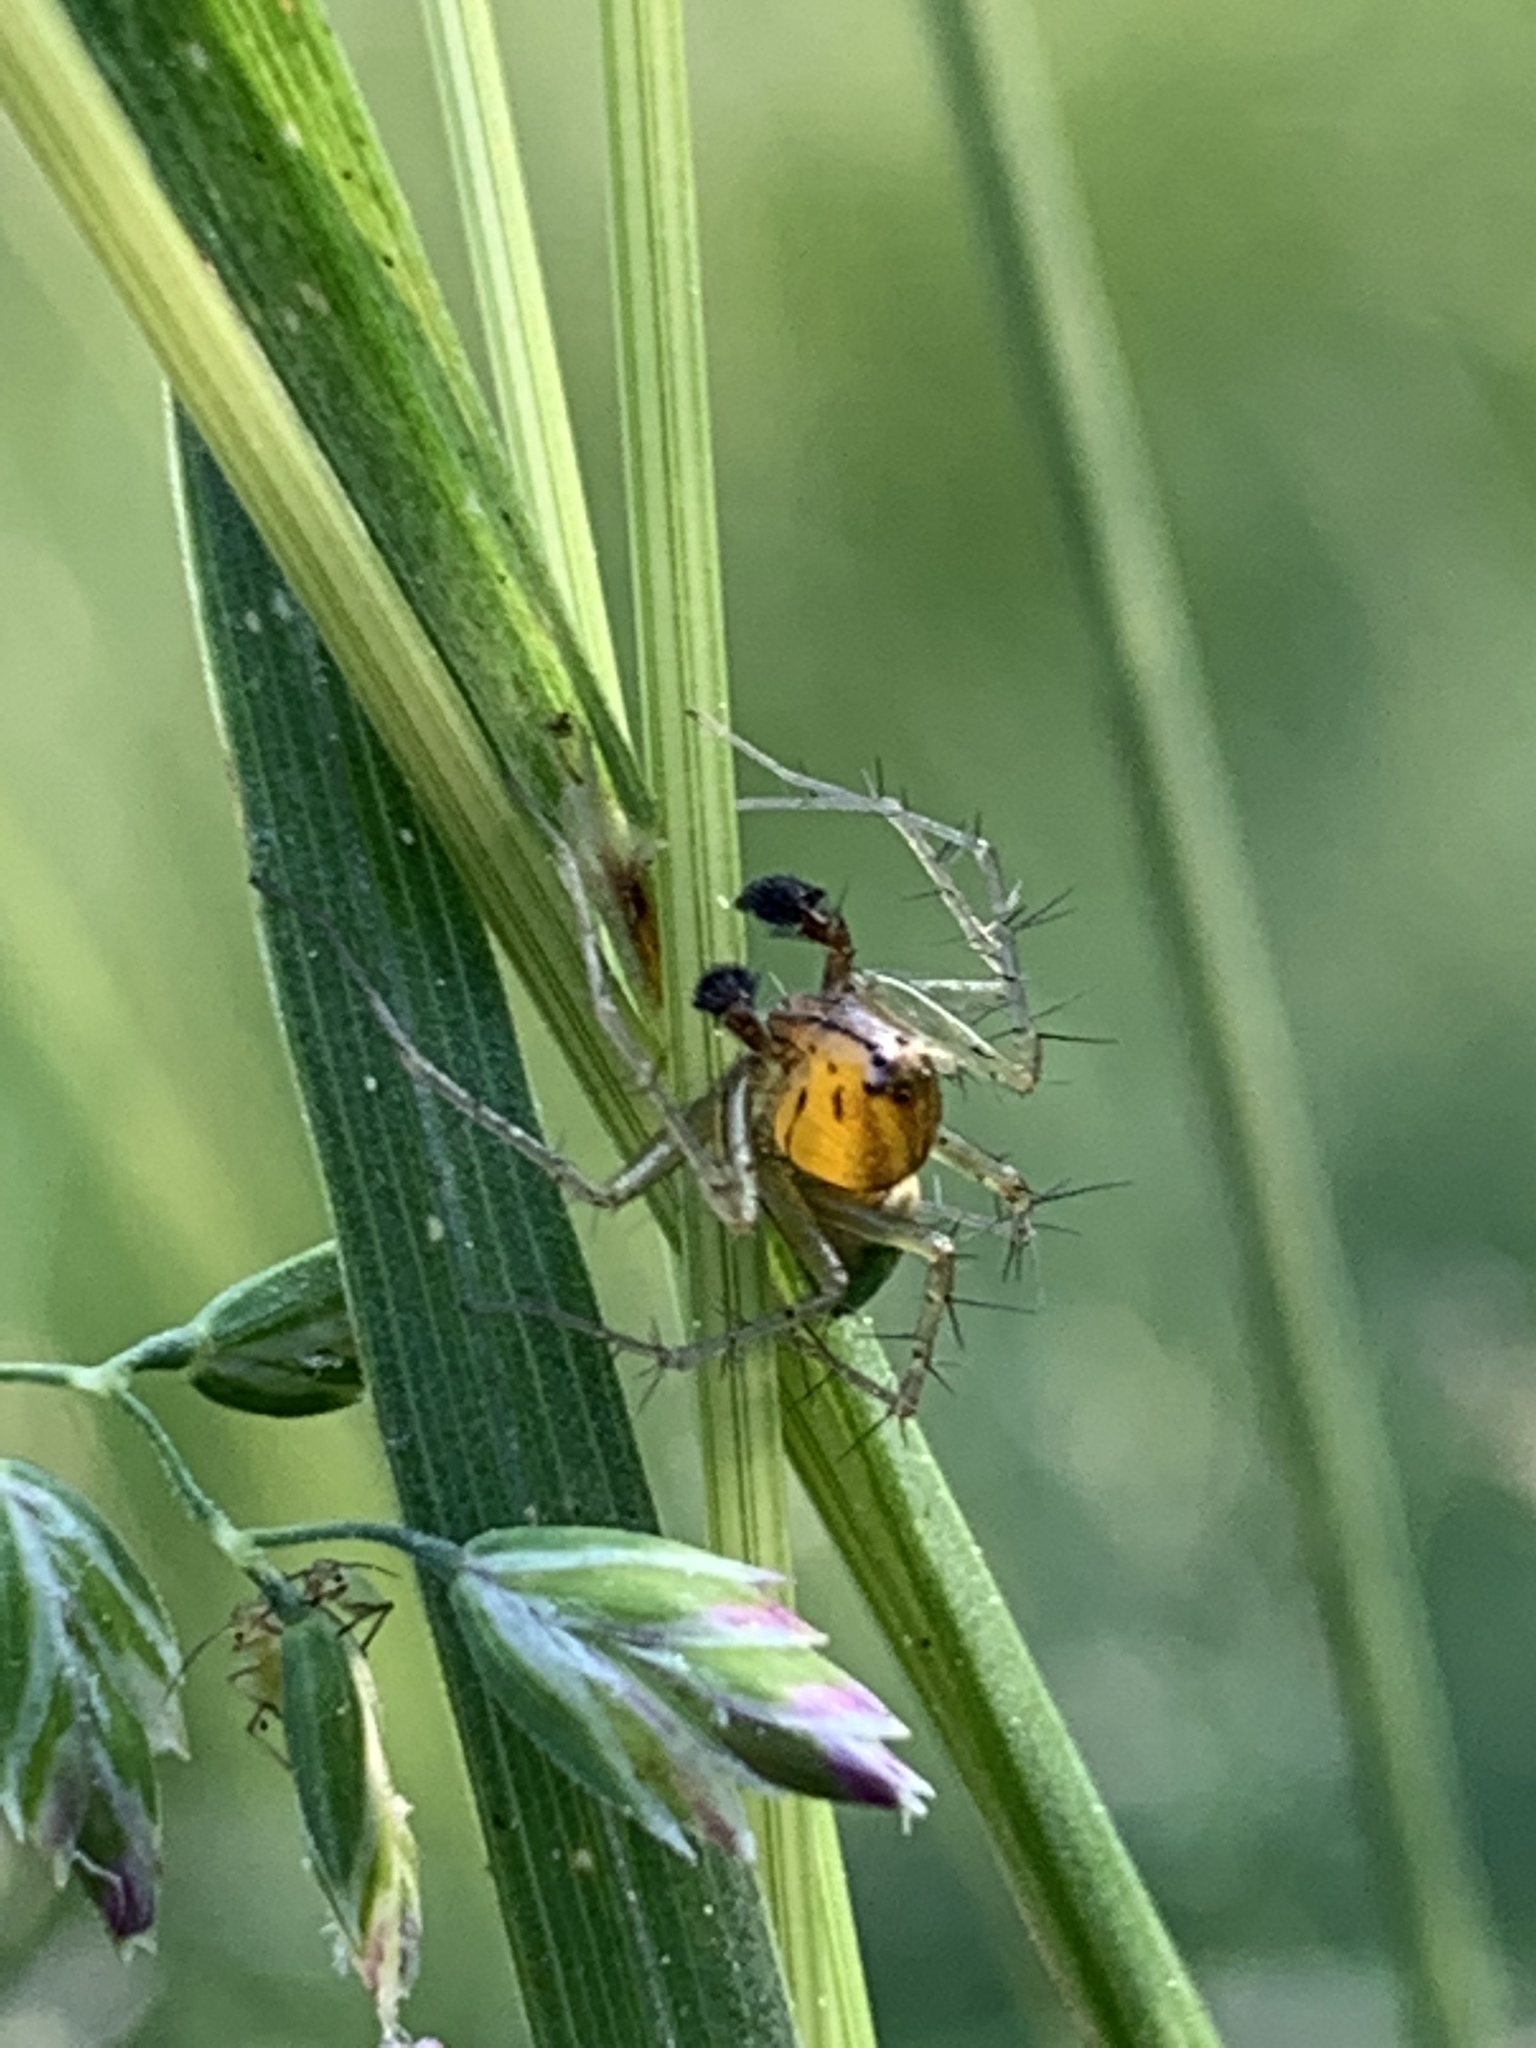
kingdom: Animalia
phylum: Arthropoda
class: Arachnida
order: Araneae
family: Oxyopidae
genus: Oxyopes
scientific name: Oxyopes salticus
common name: Lynx spiders
